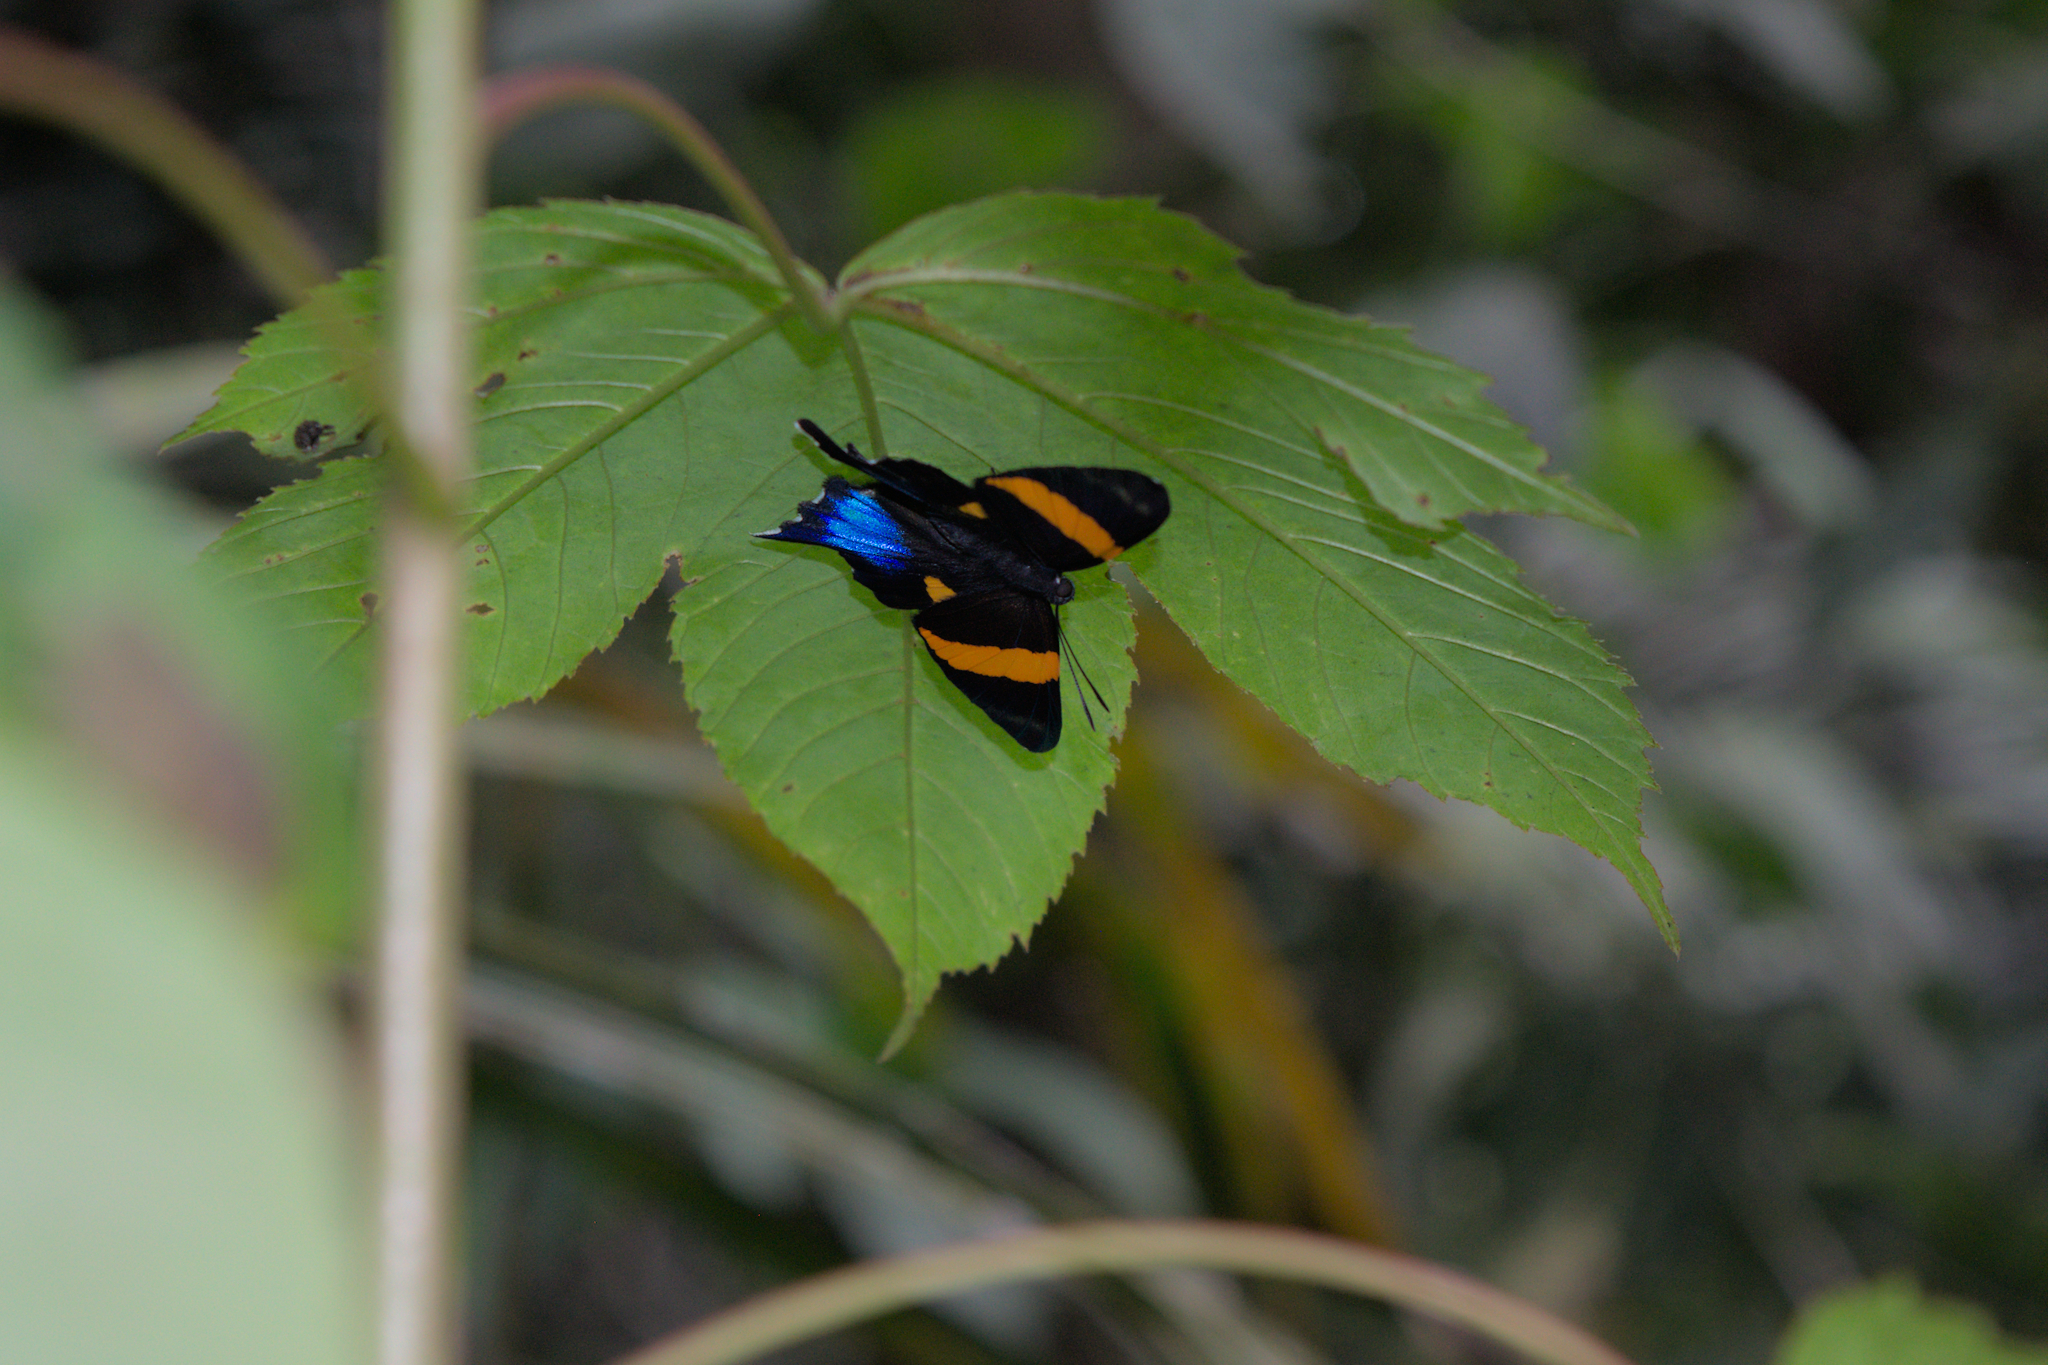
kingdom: Animalia
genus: Ancyluris
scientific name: Ancyluris inca
